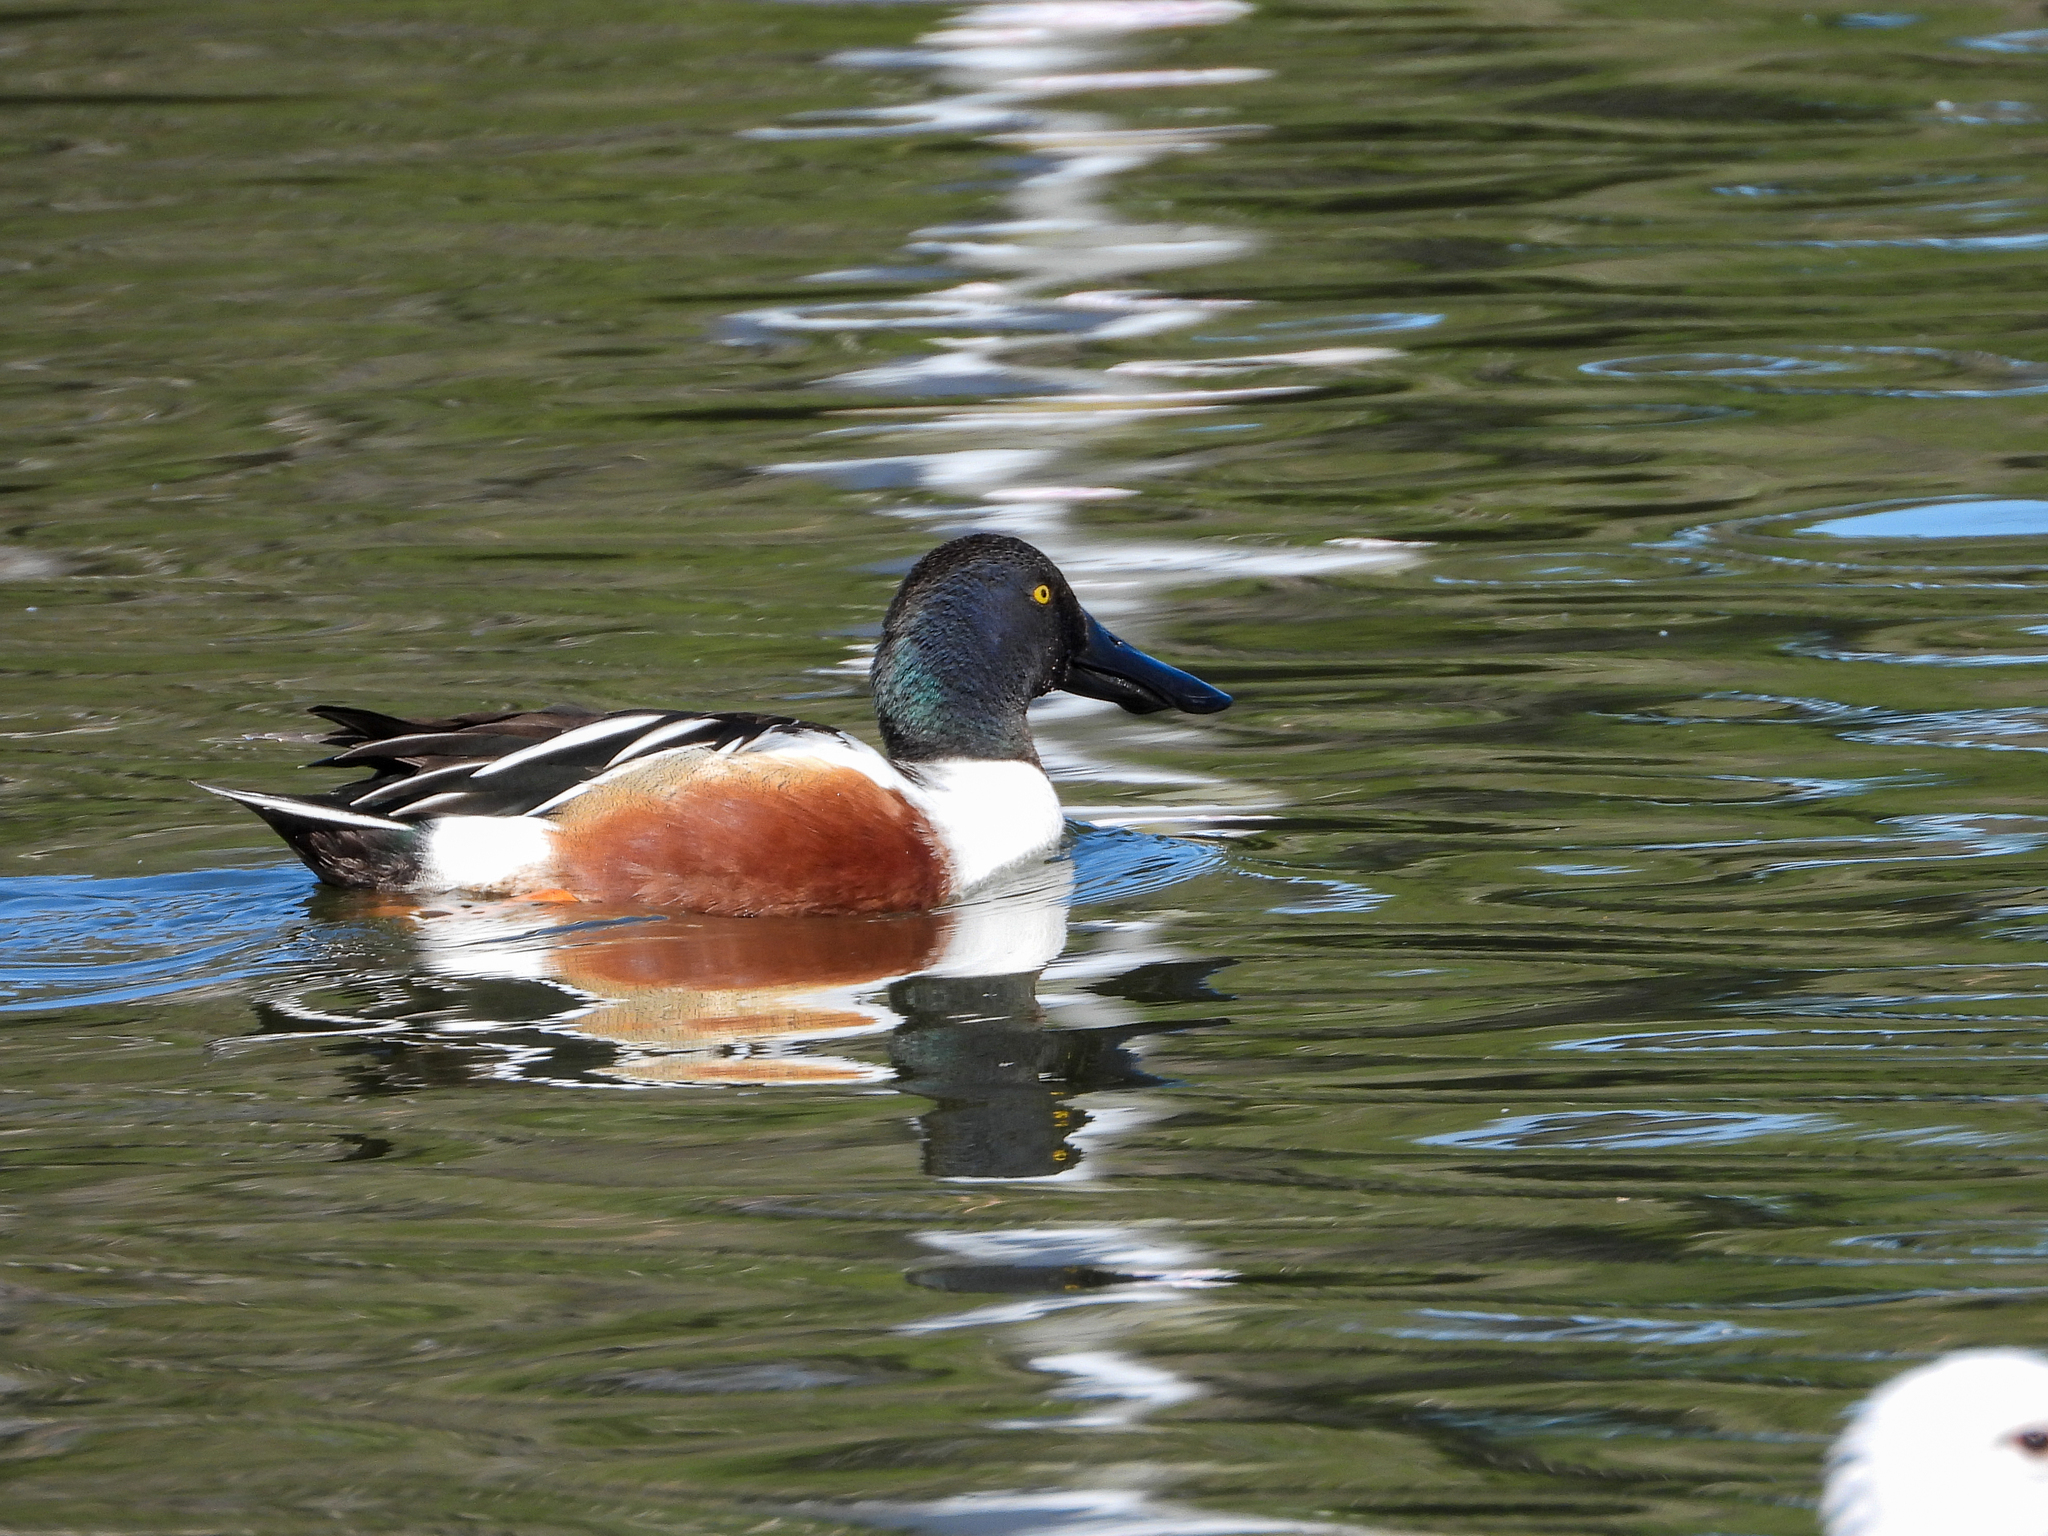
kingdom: Animalia
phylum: Chordata
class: Aves
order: Anseriformes
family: Anatidae
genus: Spatula
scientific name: Spatula clypeata
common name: Northern shoveler
